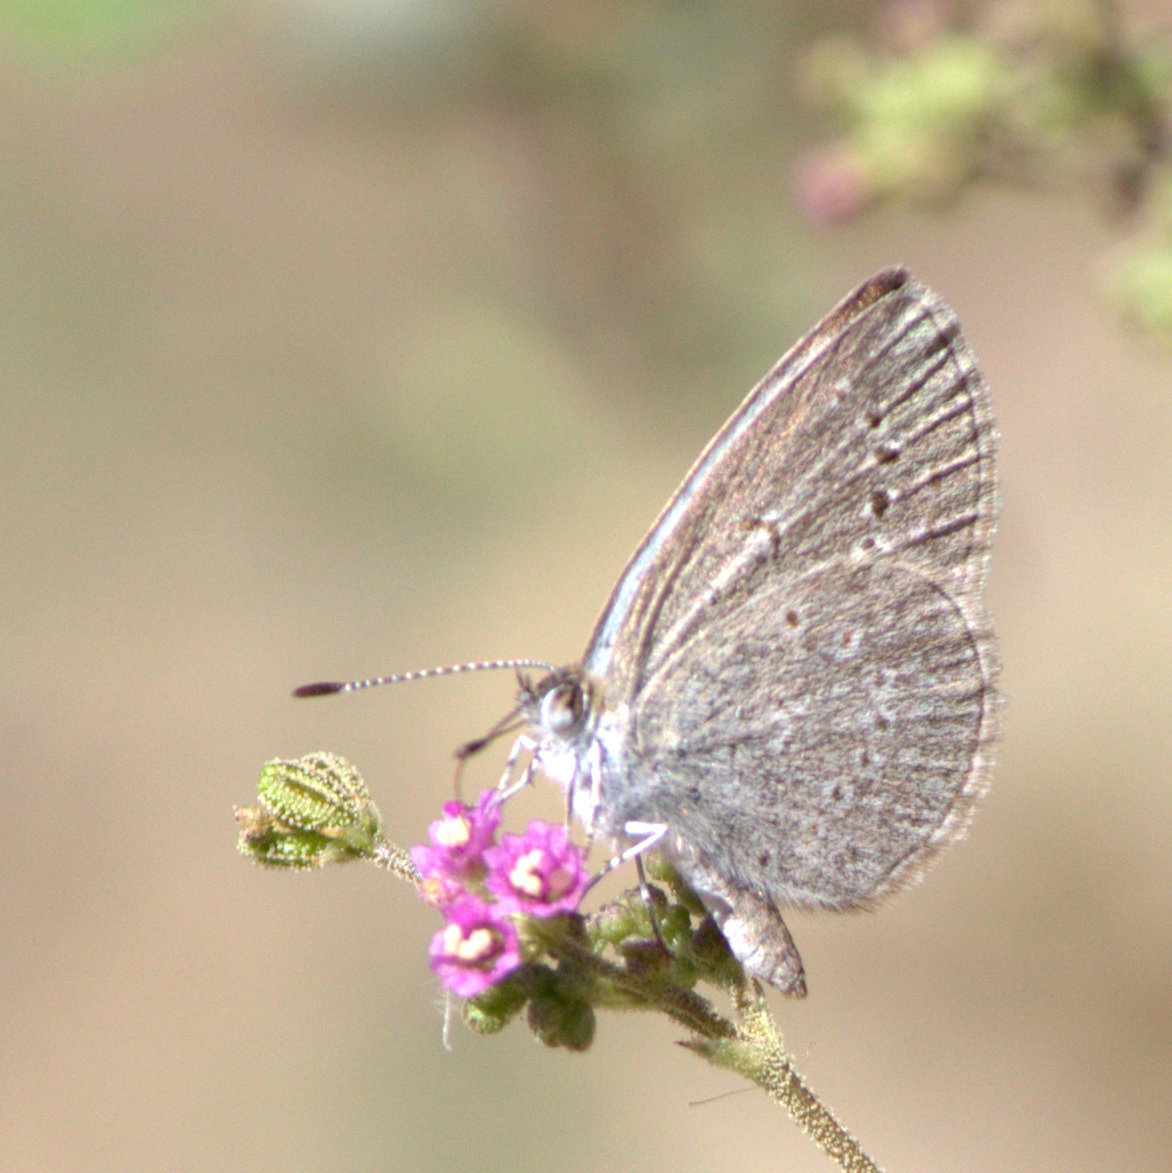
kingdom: Animalia
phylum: Arthropoda
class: Insecta
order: Lepidoptera
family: Lycaenidae
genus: Pseudozizeeria
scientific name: Pseudozizeeria maha
